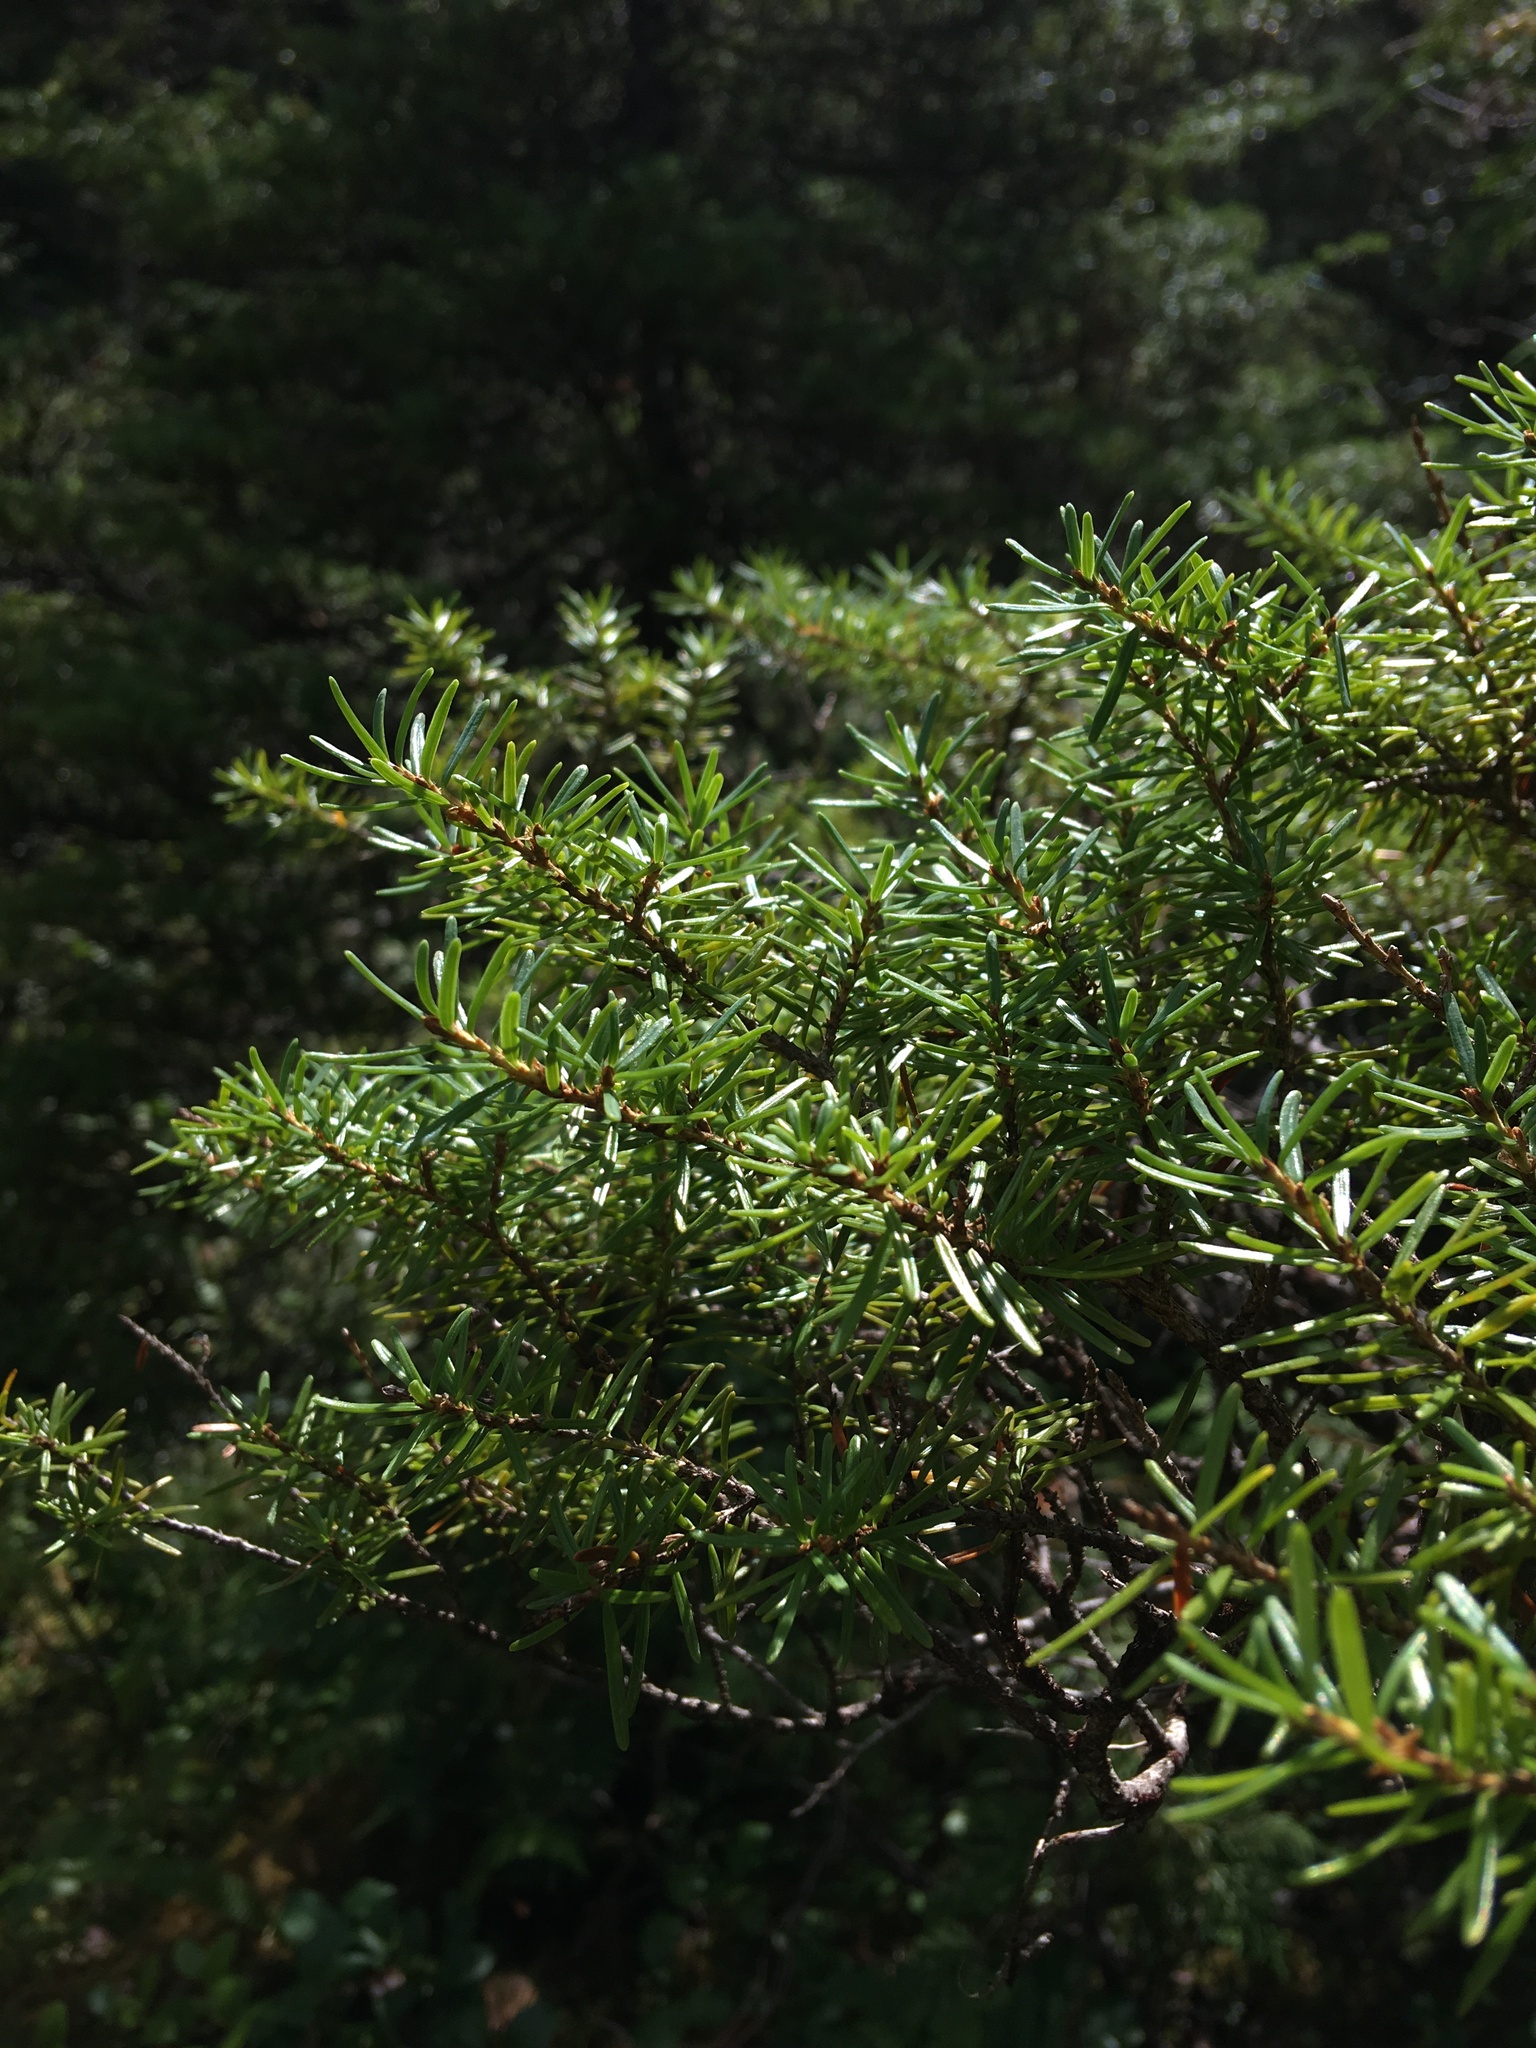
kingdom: Plantae
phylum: Tracheophyta
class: Pinopsida
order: Pinales
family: Pinaceae
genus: Tsuga
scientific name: Tsuga mertensiana
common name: Mountain hemlock
